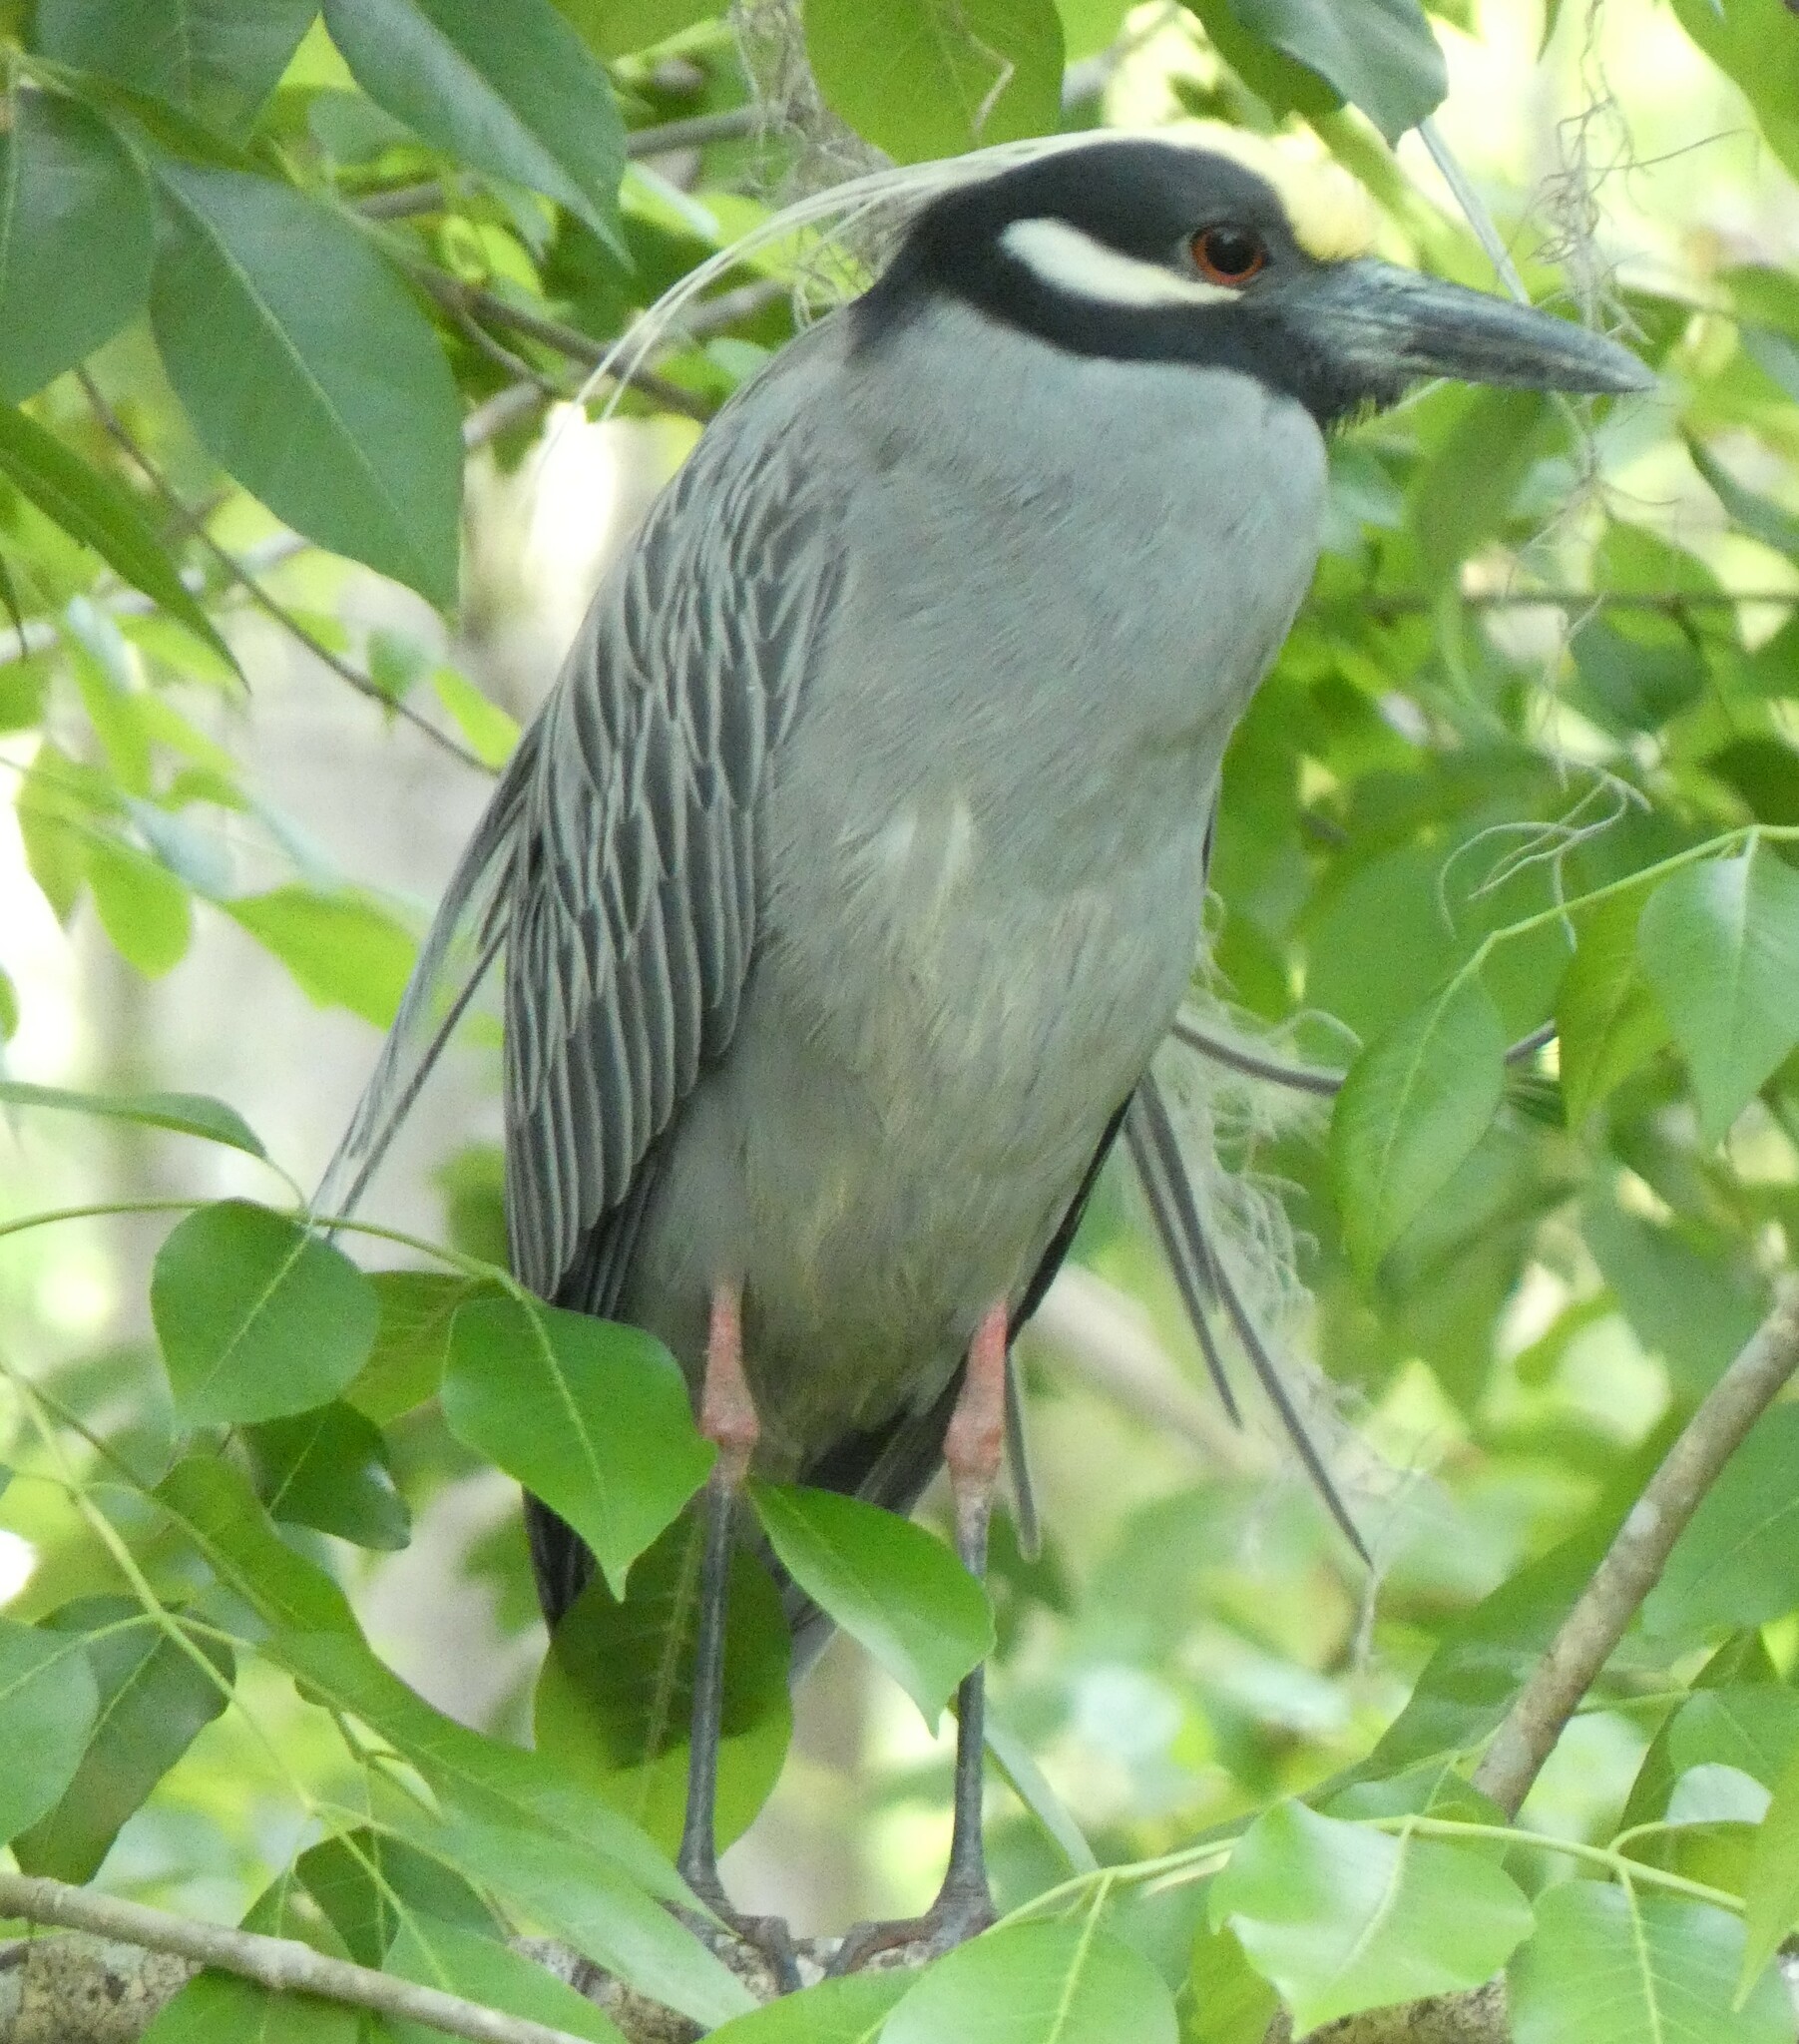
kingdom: Animalia
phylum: Chordata
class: Aves
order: Pelecaniformes
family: Ardeidae
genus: Nyctanassa
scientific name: Nyctanassa violacea
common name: Yellow-crowned night heron
